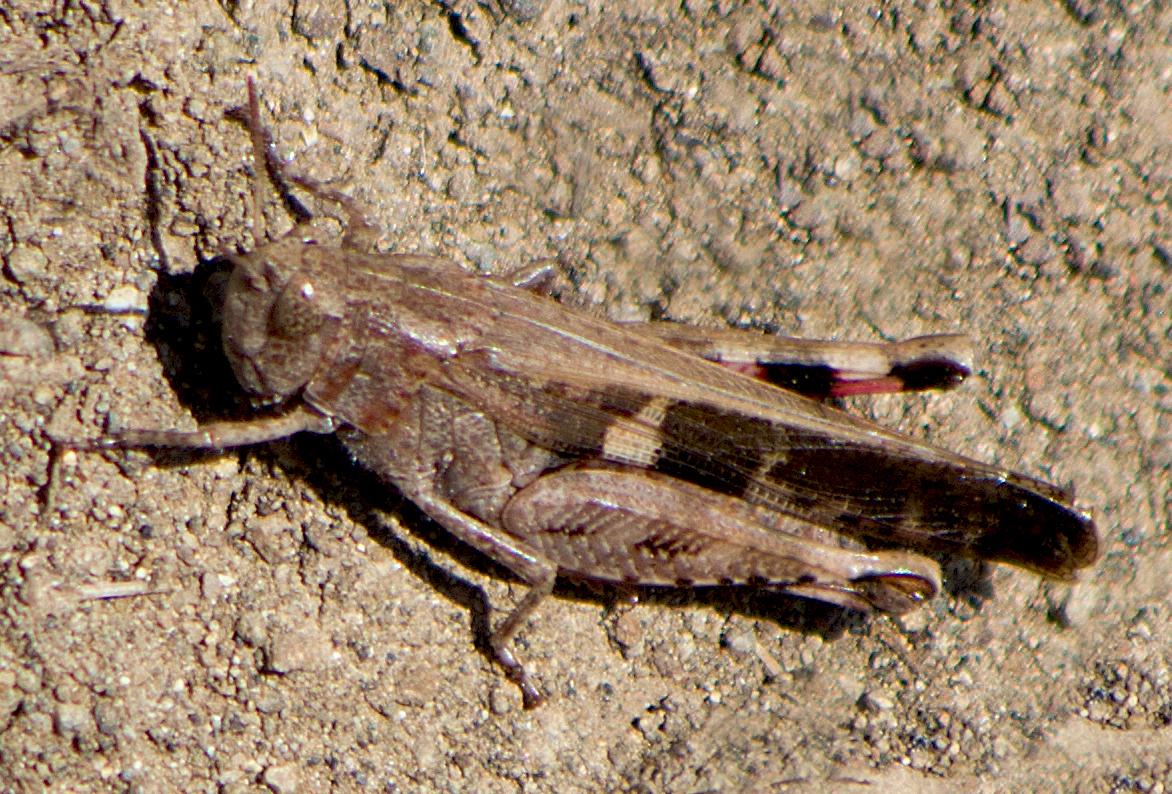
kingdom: Animalia
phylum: Arthropoda
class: Insecta
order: Orthoptera
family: Acrididae
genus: Aiolopus
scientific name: Aiolopus strepens
